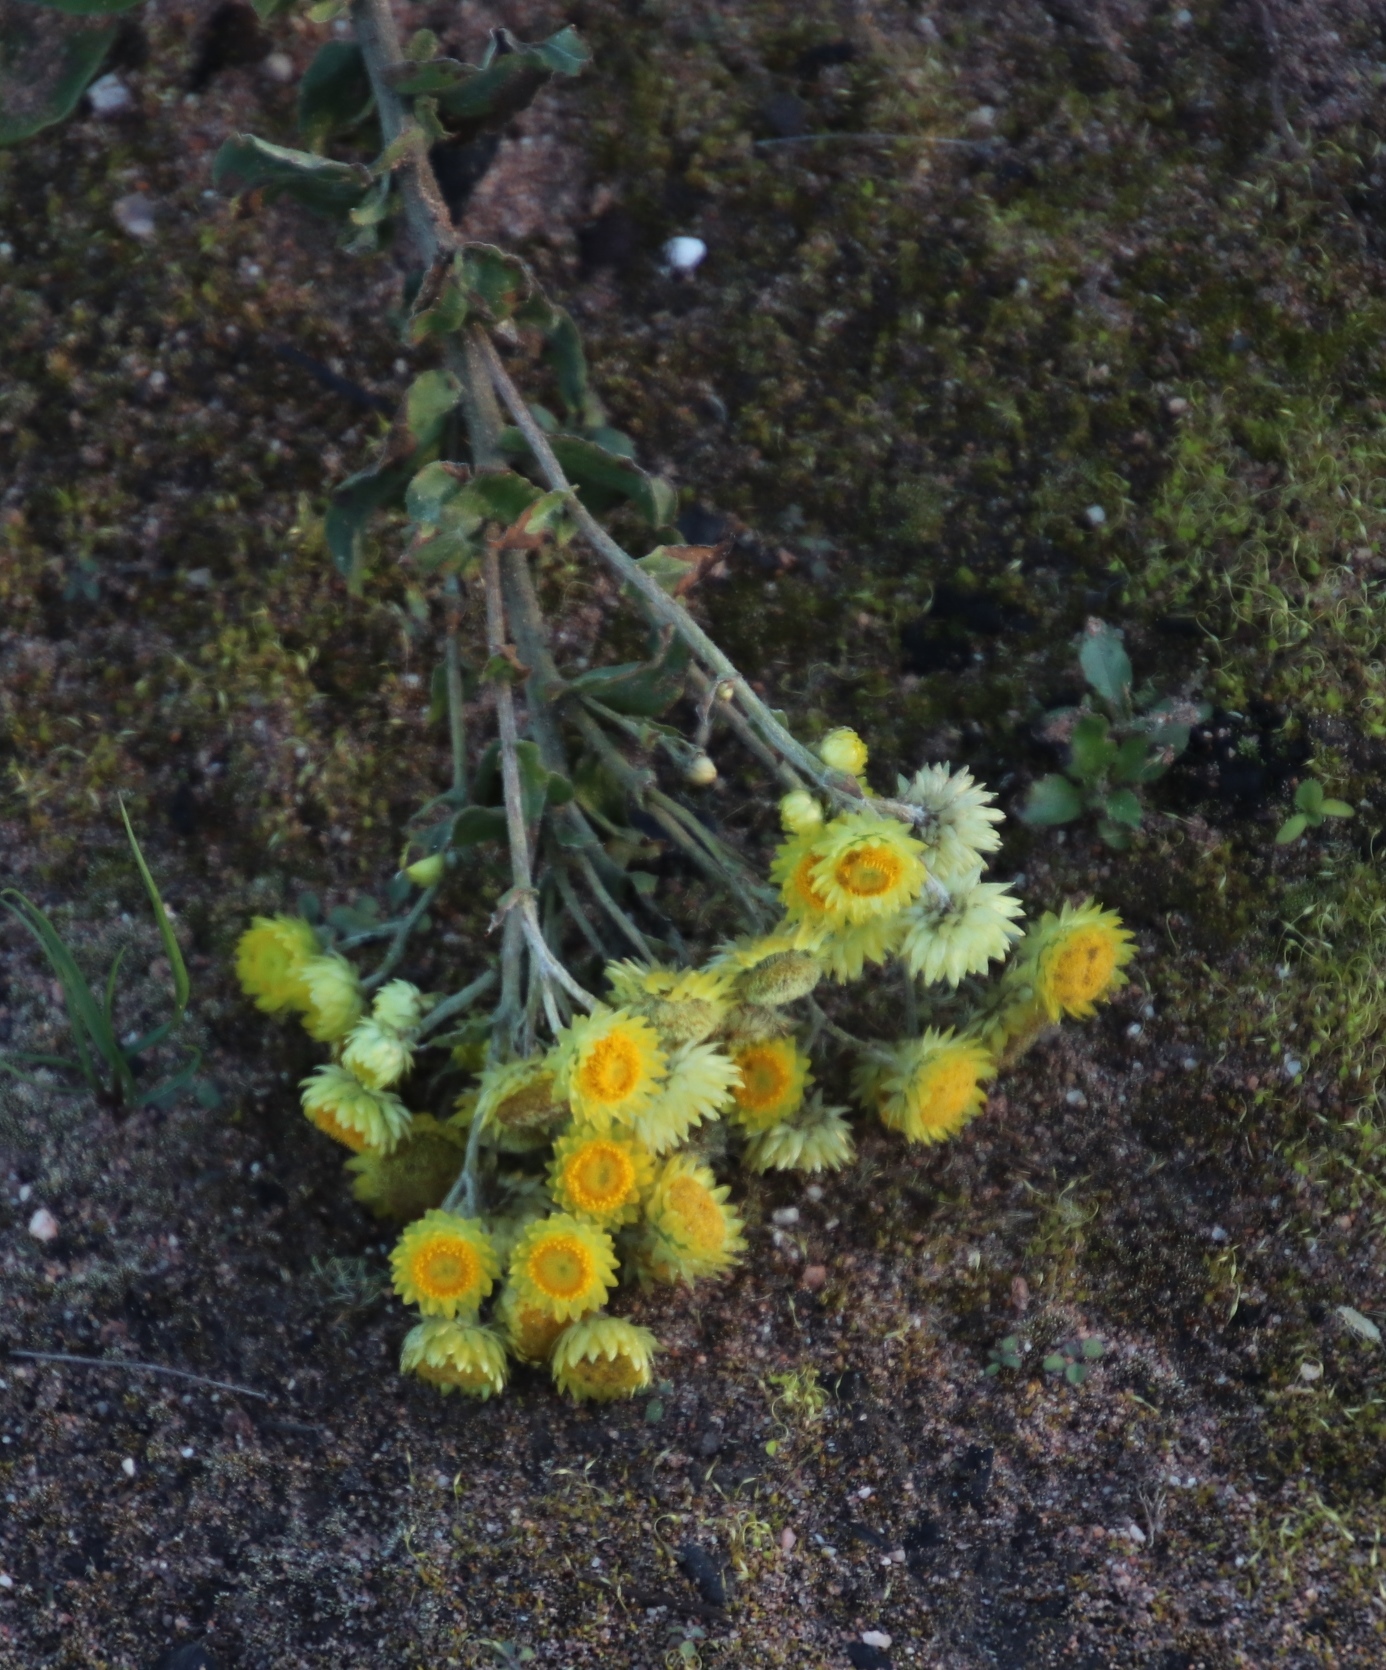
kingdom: Plantae
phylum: Tracheophyta
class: Magnoliopsida
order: Asterales
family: Asteraceae
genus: Helichrysum
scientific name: Helichrysum foetidum
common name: Stinking everlasting
